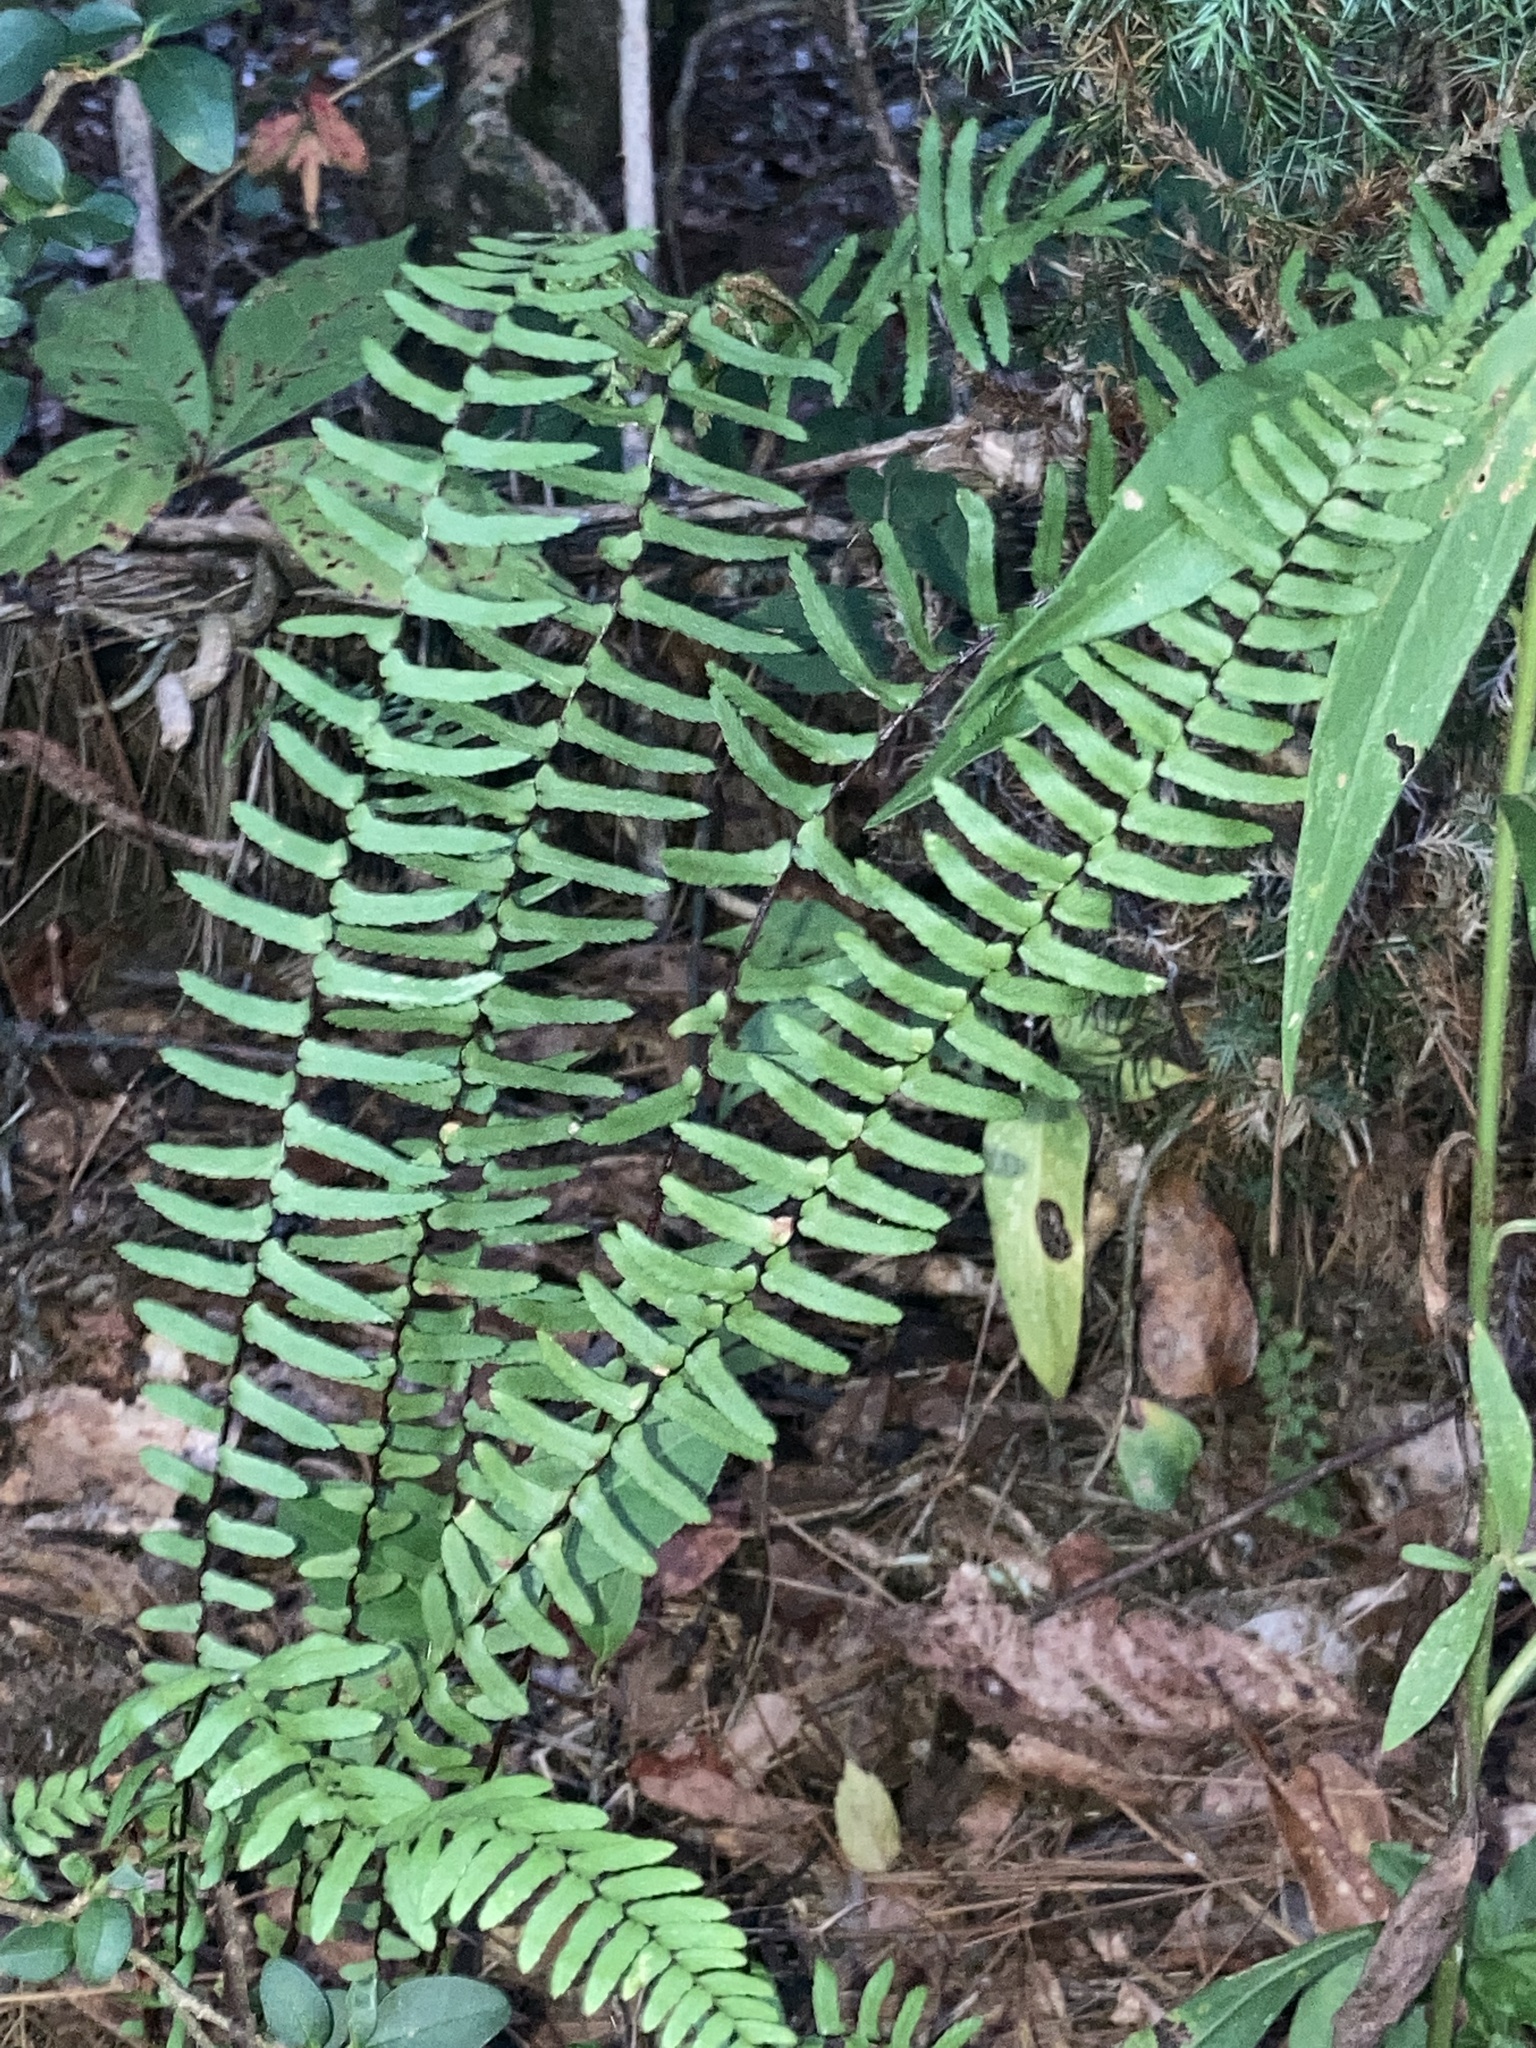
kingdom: Plantae
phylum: Tracheophyta
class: Polypodiopsida
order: Polypodiales
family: Aspleniaceae
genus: Asplenium
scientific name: Asplenium platyneuron
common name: Ebony spleenwort
